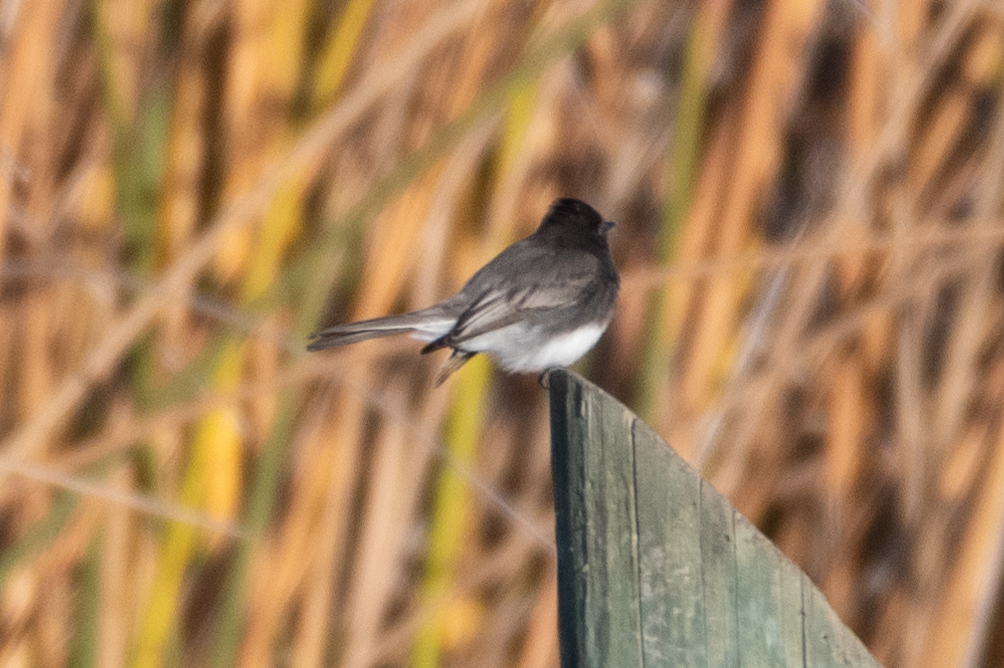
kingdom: Animalia
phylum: Chordata
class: Aves
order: Passeriformes
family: Tyrannidae
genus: Sayornis
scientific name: Sayornis nigricans
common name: Black phoebe
